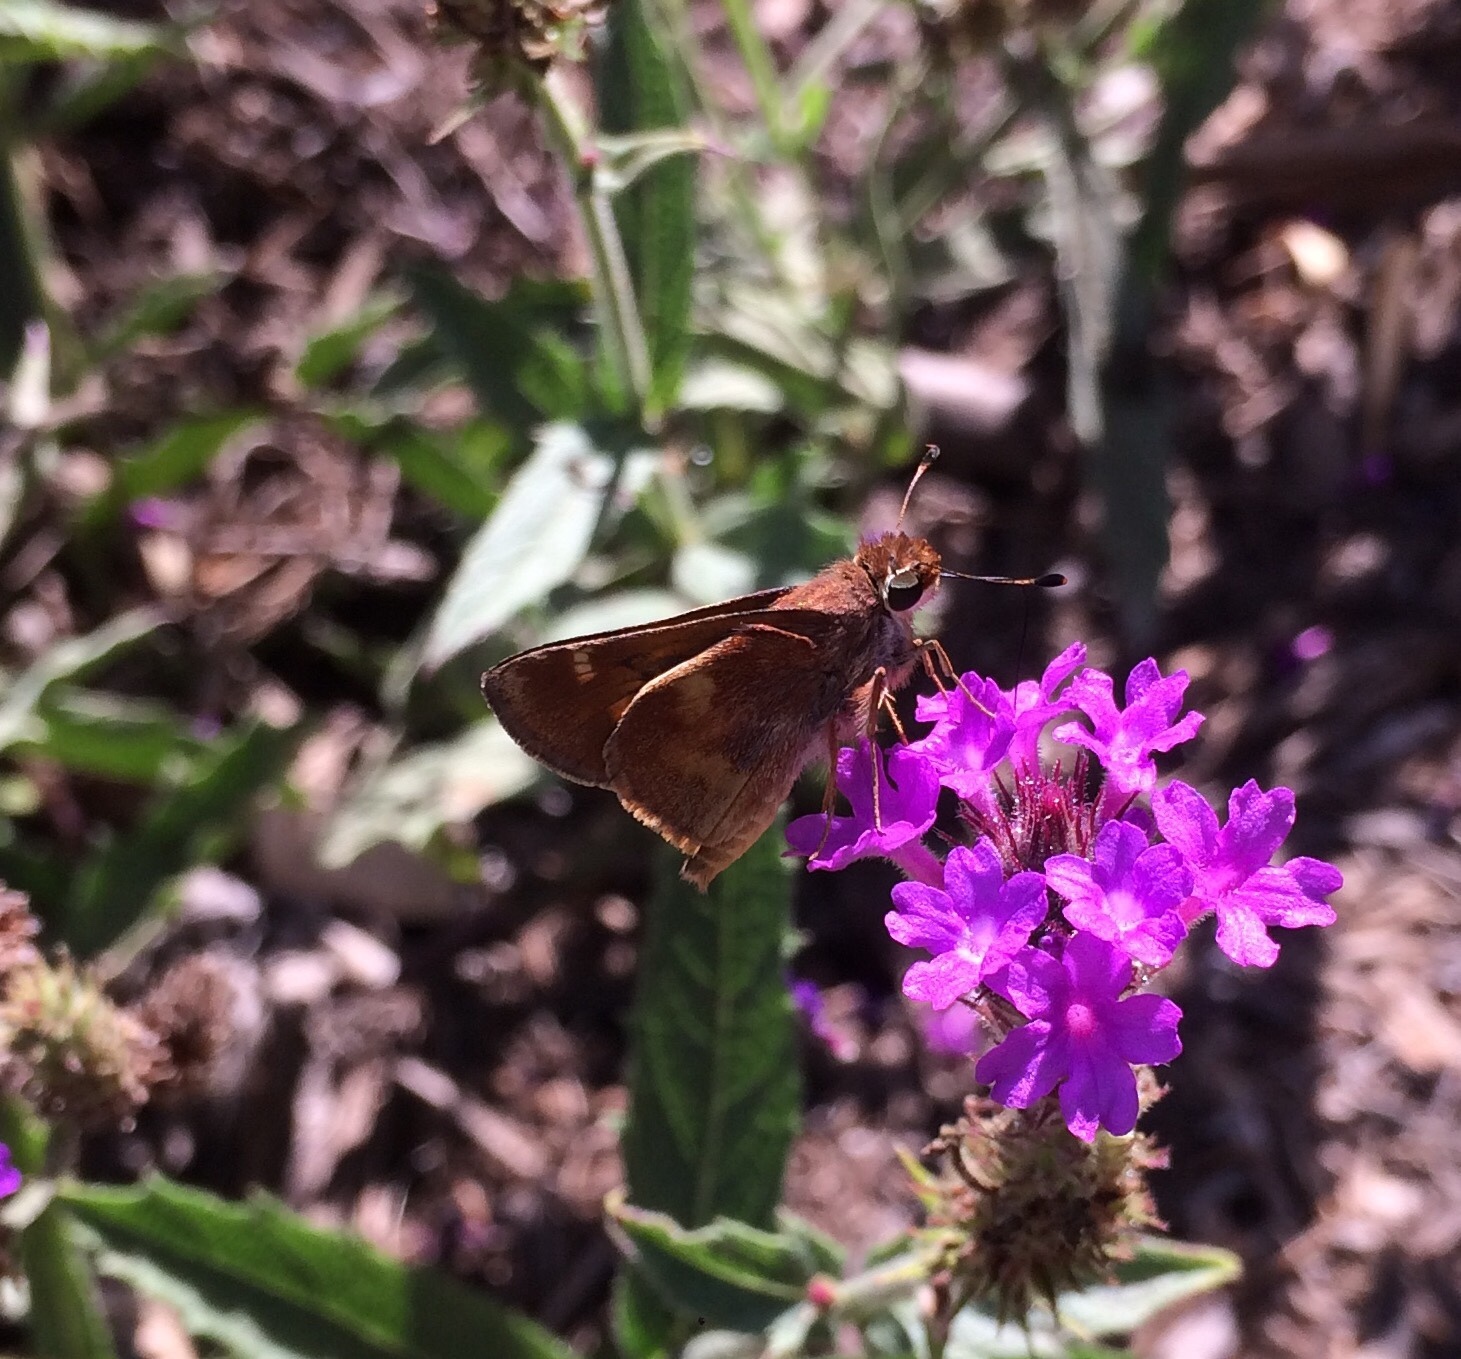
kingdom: Animalia
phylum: Arthropoda
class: Insecta
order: Lepidoptera
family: Hesperiidae
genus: Lon
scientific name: Lon melane
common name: Umber skipper
